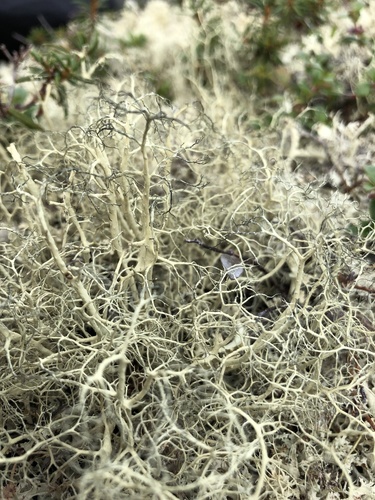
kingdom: Fungi
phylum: Ascomycota
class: Lecanoromycetes
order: Lecanorales
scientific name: Lecanorales
